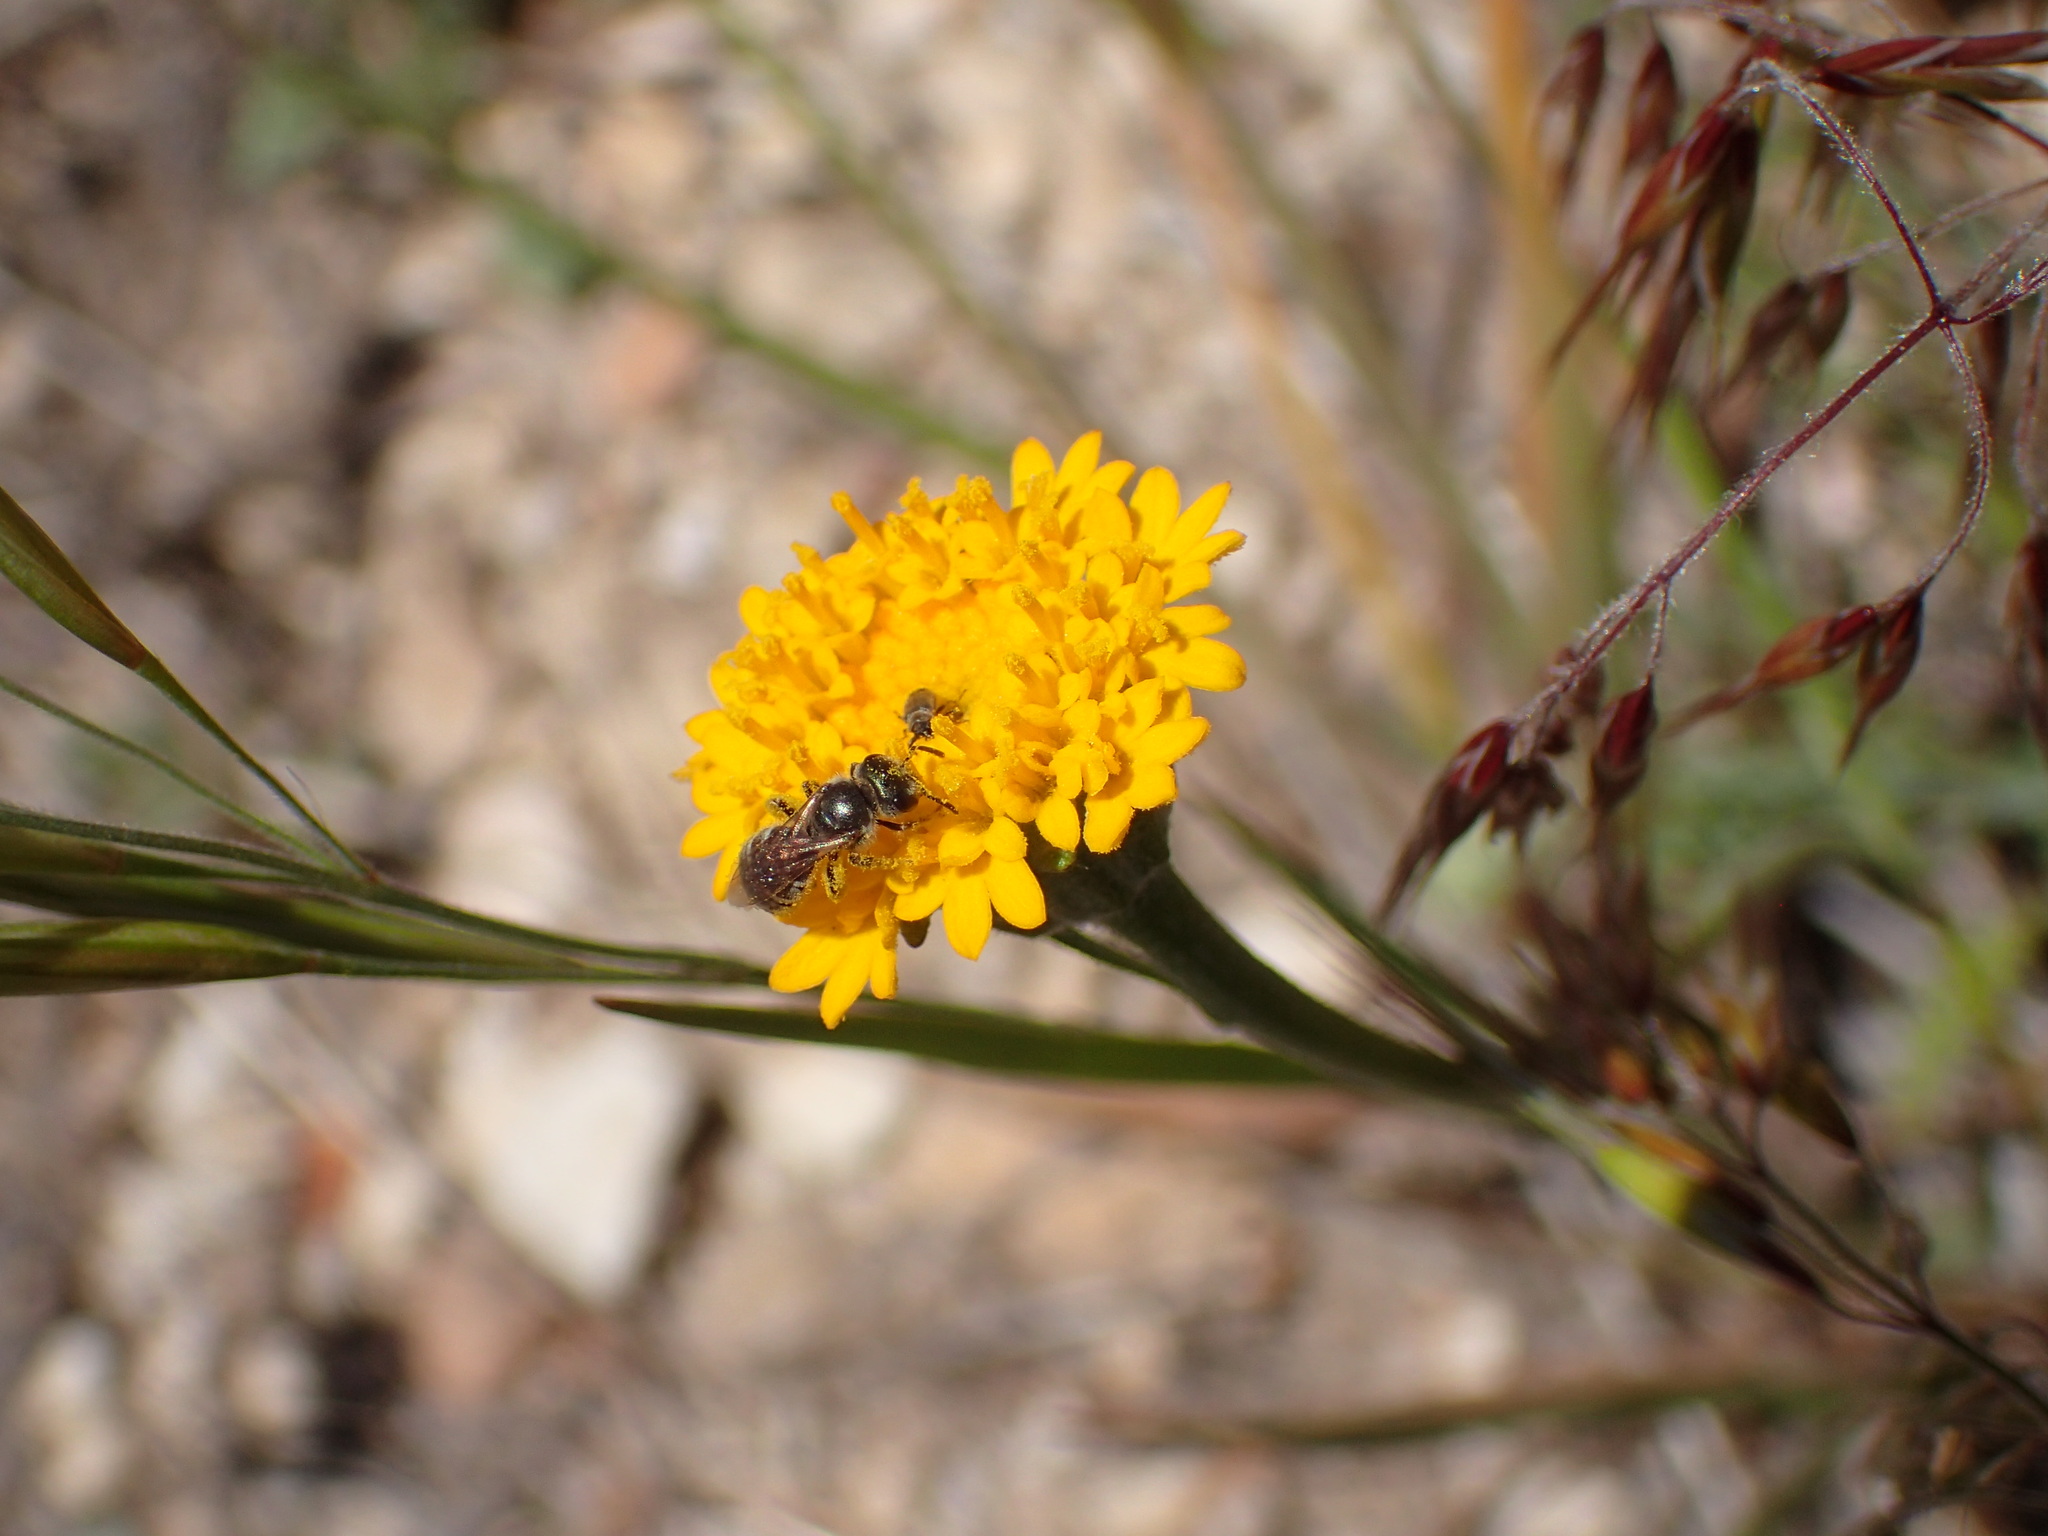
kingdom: Plantae
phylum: Tracheophyta
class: Magnoliopsida
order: Asterales
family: Asteraceae
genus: Chaenactis
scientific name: Chaenactis glabriuscula
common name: Yellow pincushion
